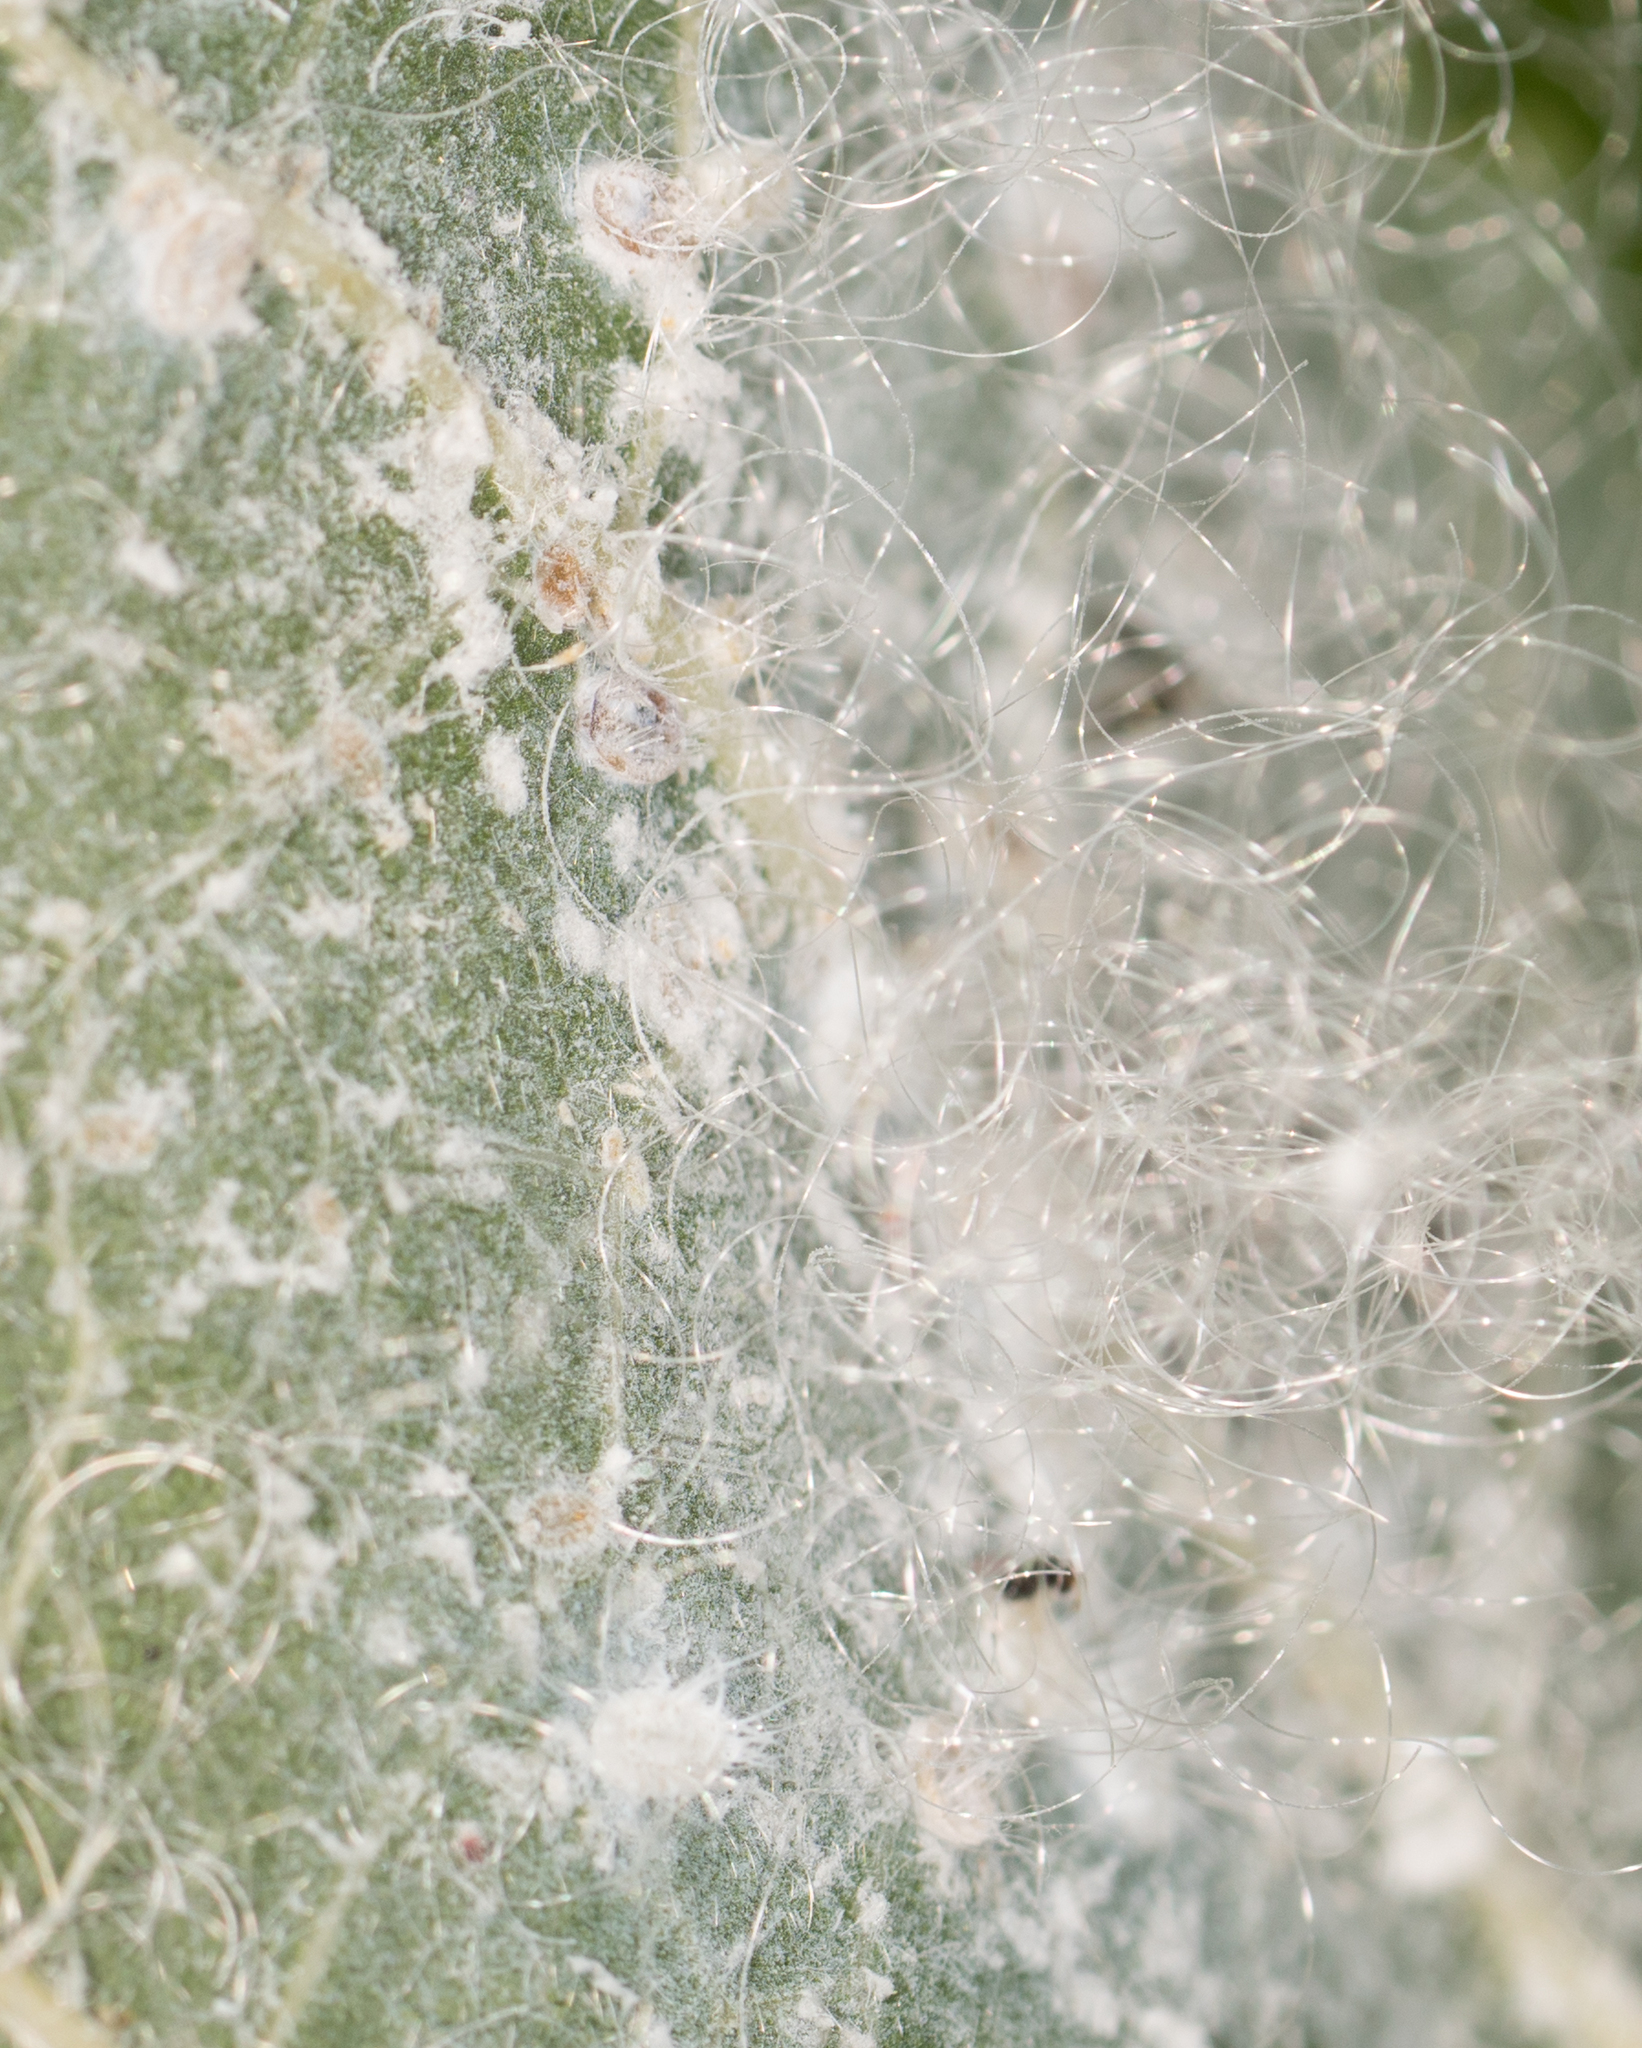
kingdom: Animalia
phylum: Arthropoda
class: Insecta
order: Hemiptera
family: Aleyrodidae
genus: Aleurodicus
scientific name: Aleurodicus dugesii
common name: Giant whitefly
